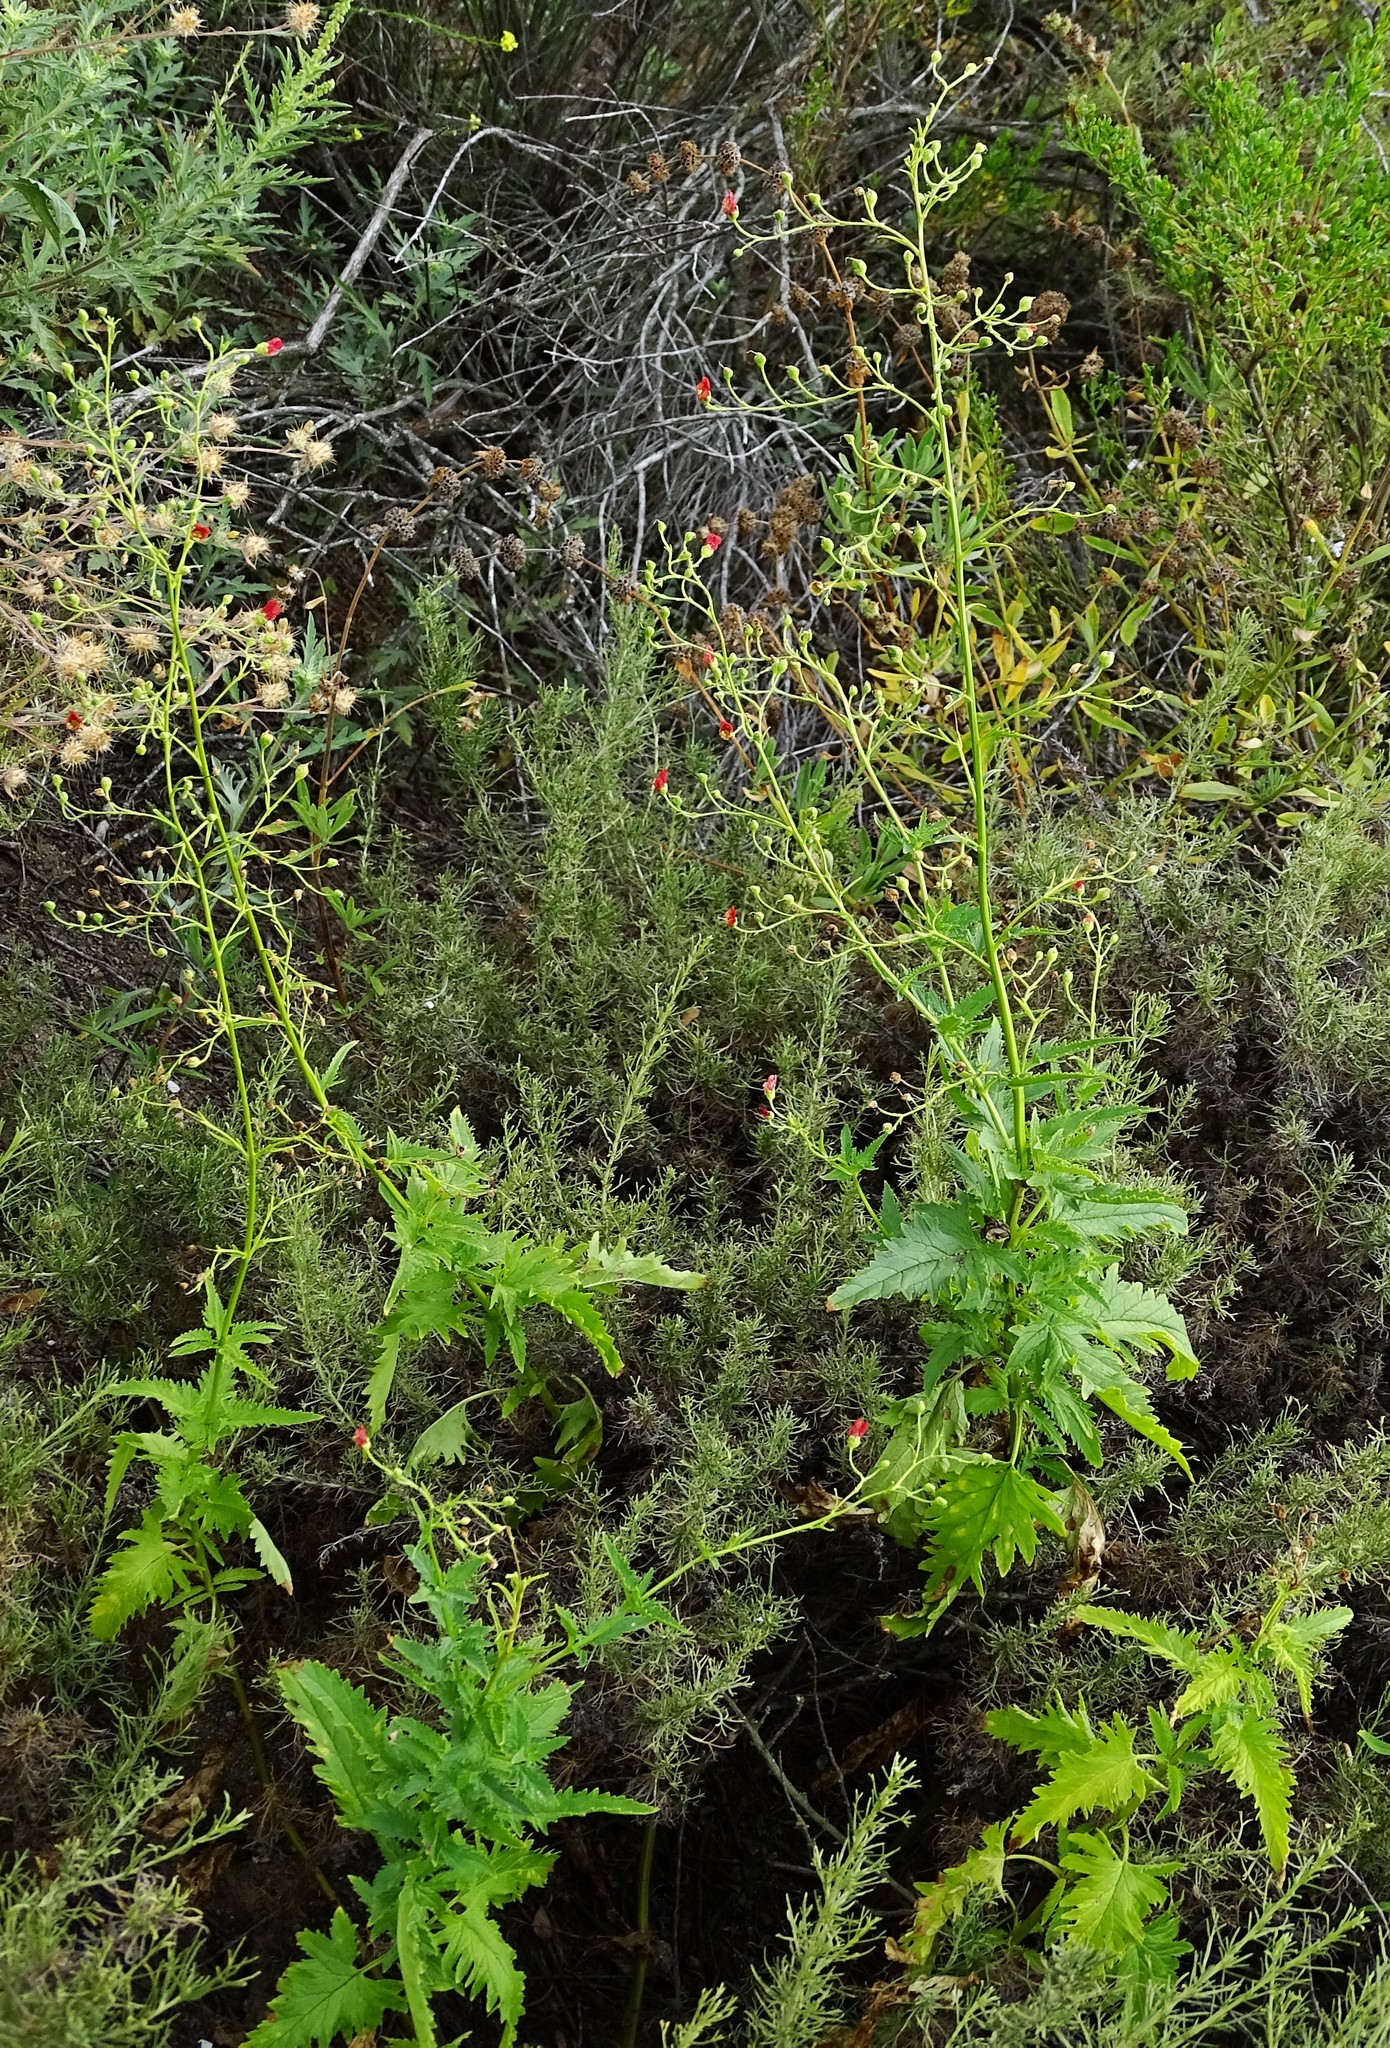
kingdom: Plantae
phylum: Tracheophyta
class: Magnoliopsida
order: Lamiales
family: Scrophulariaceae
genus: Scrophularia
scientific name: Scrophularia californica
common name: California figwort
